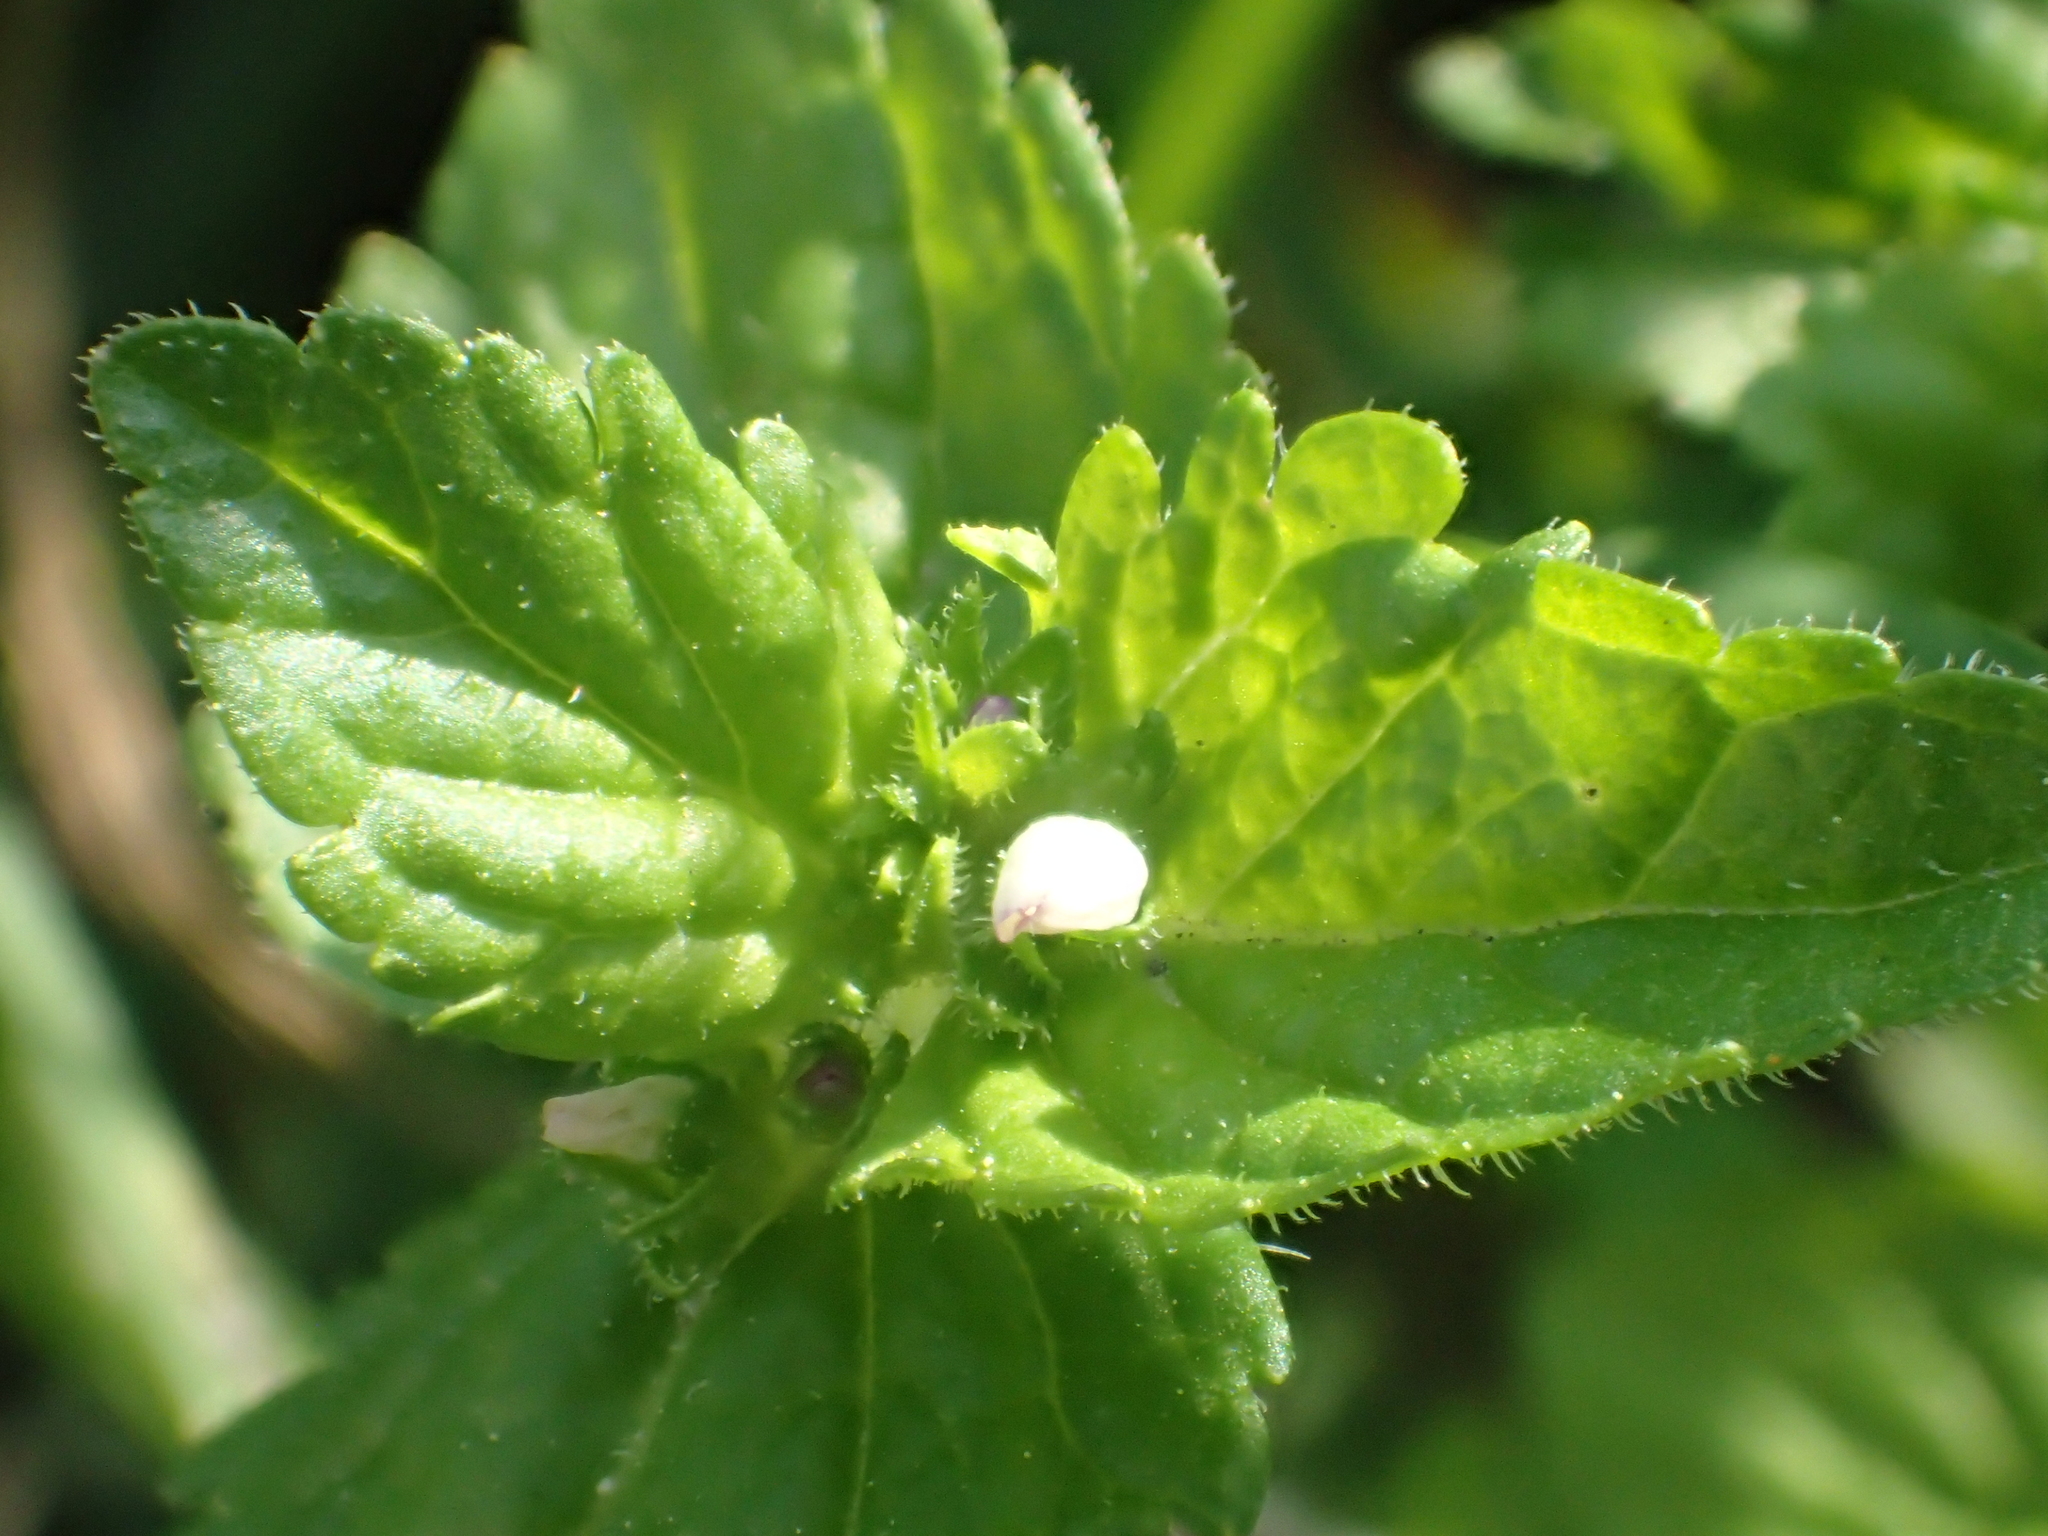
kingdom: Plantae
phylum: Tracheophyta
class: Magnoliopsida
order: Lamiales
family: Plantaginaceae
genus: Stemodia
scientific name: Stemodia verticillata
